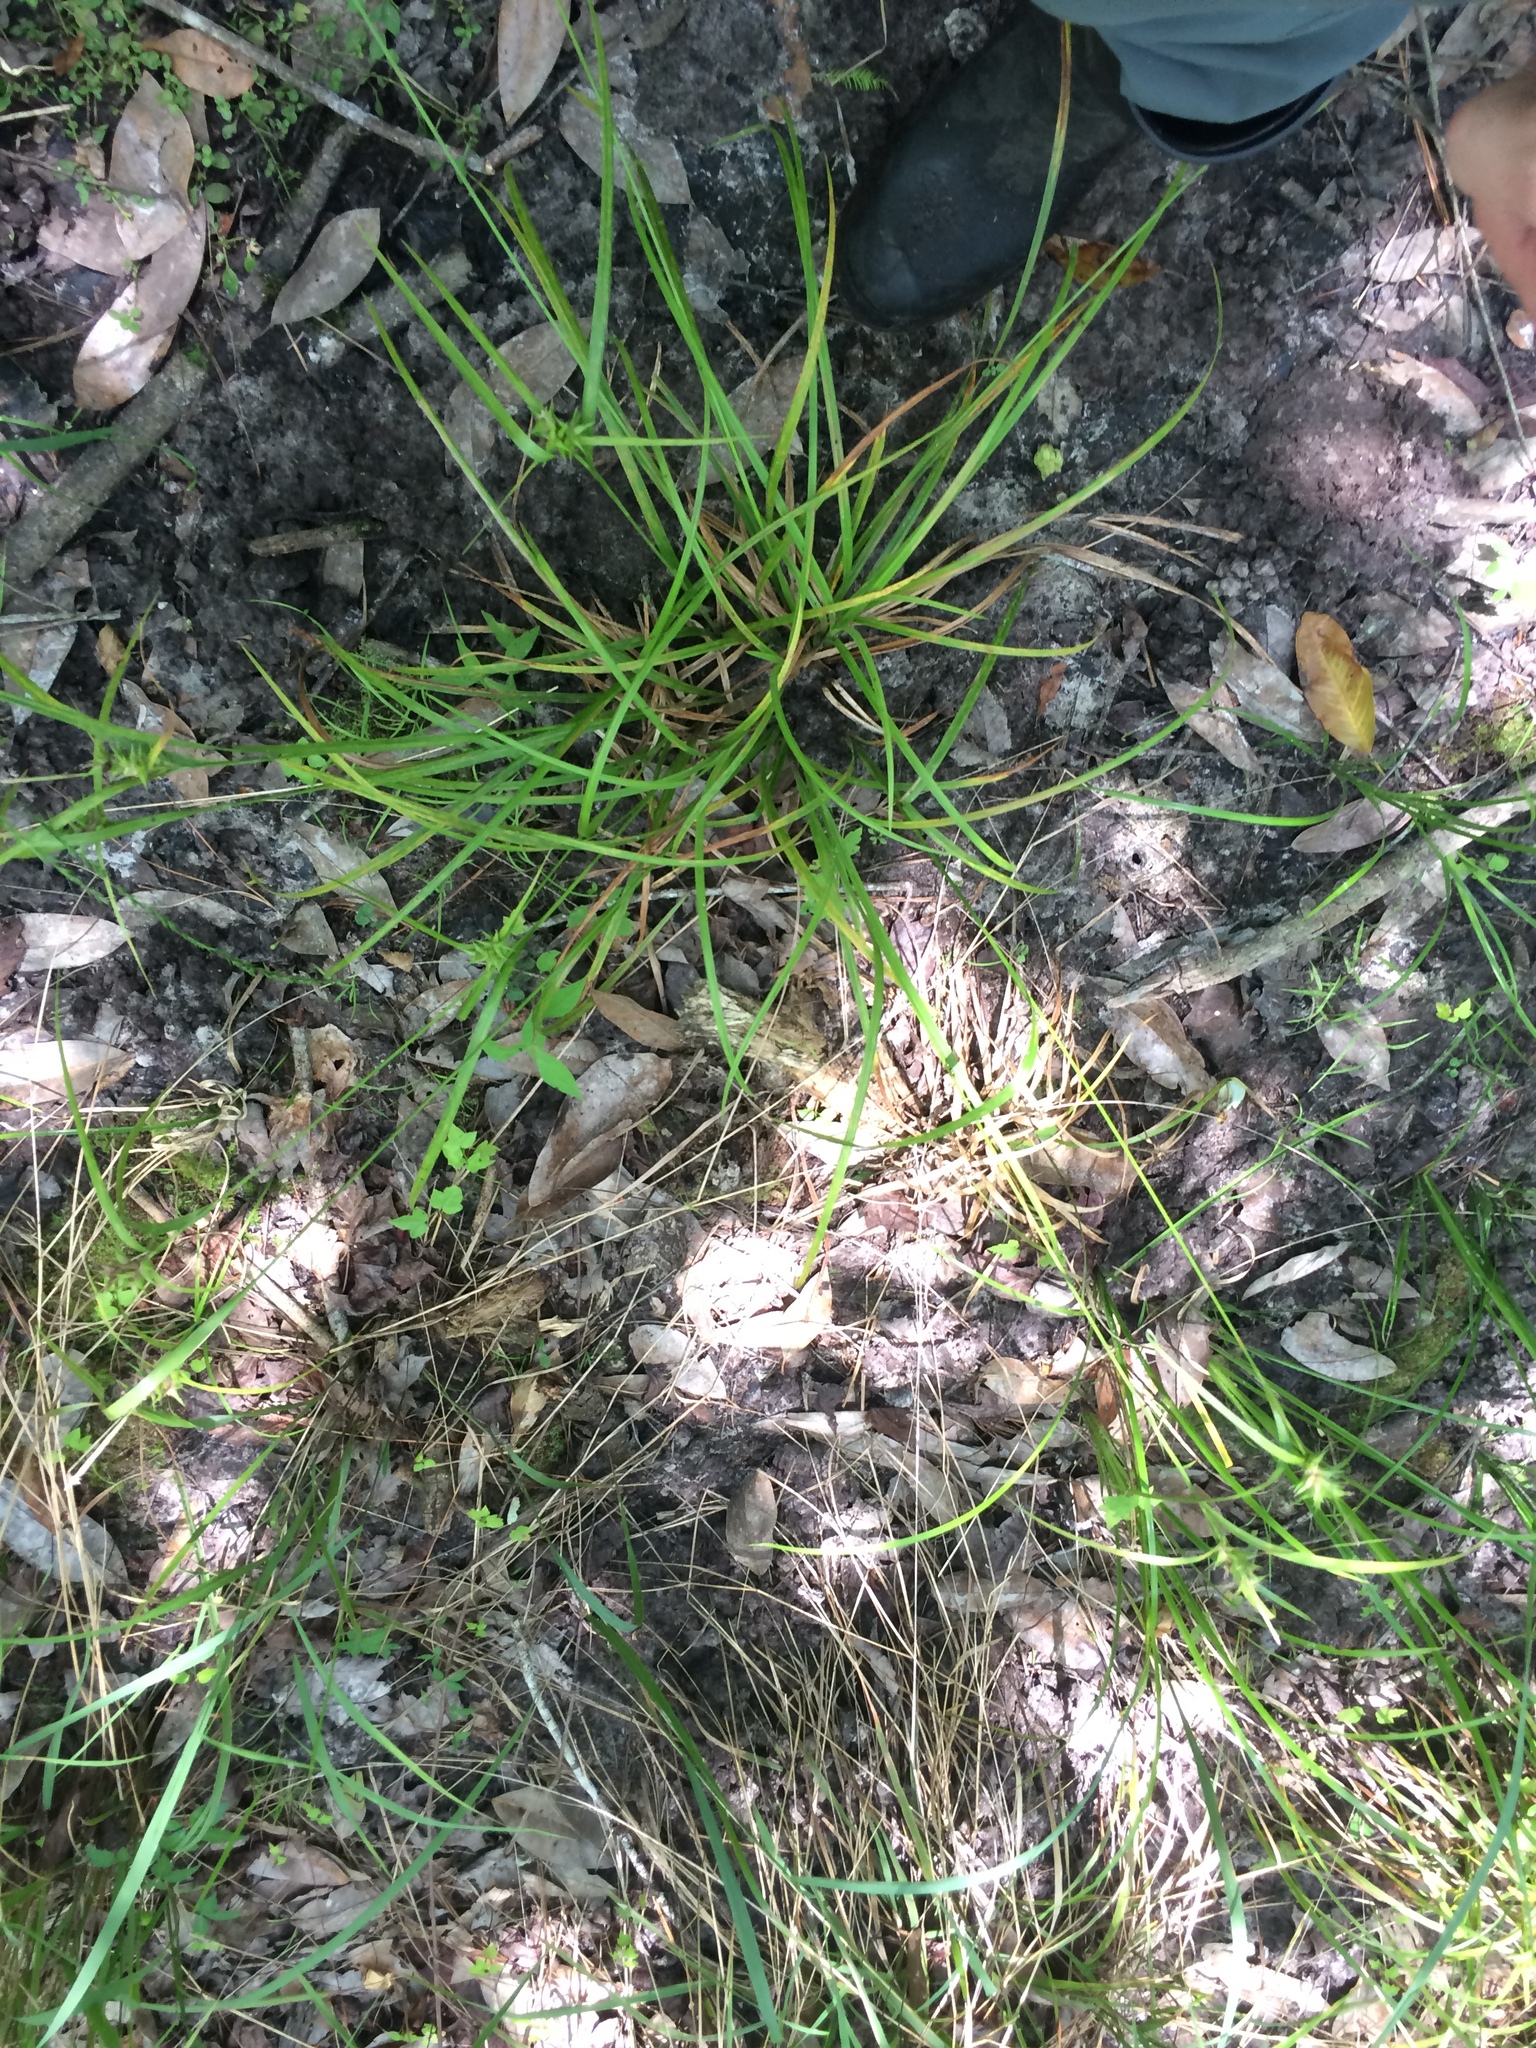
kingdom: Plantae
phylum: Tracheophyta
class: Liliopsida
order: Poales
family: Cyperaceae
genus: Carex
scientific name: Carex intumescens
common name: Greater bladder sedge
